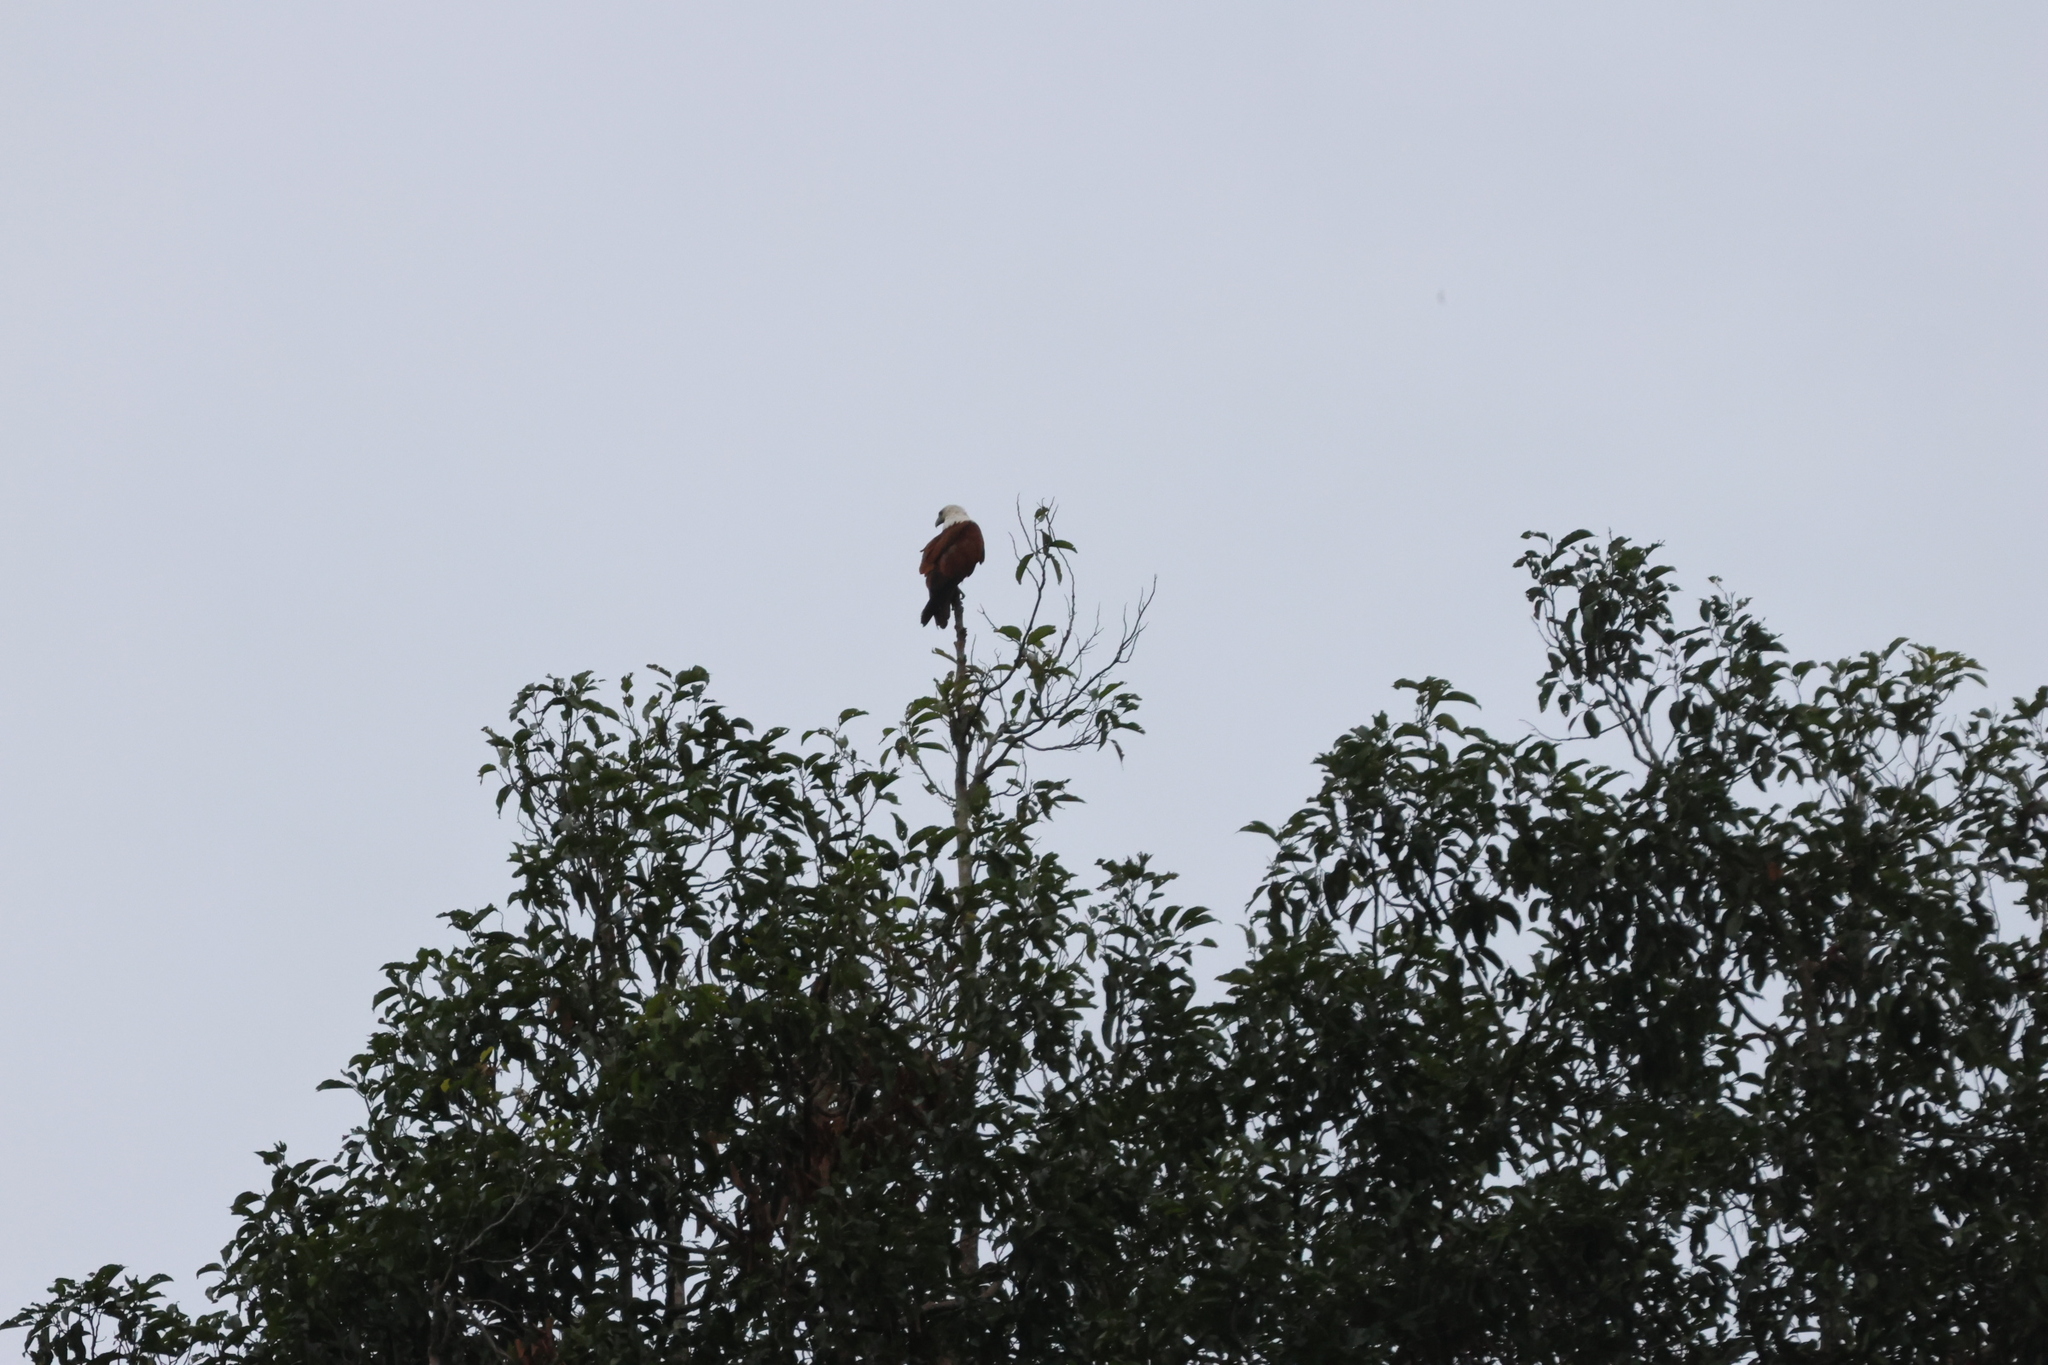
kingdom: Animalia
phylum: Chordata
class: Aves
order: Accipitriformes
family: Accipitridae
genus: Haliastur
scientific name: Haliastur indus
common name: Brahminy kite
